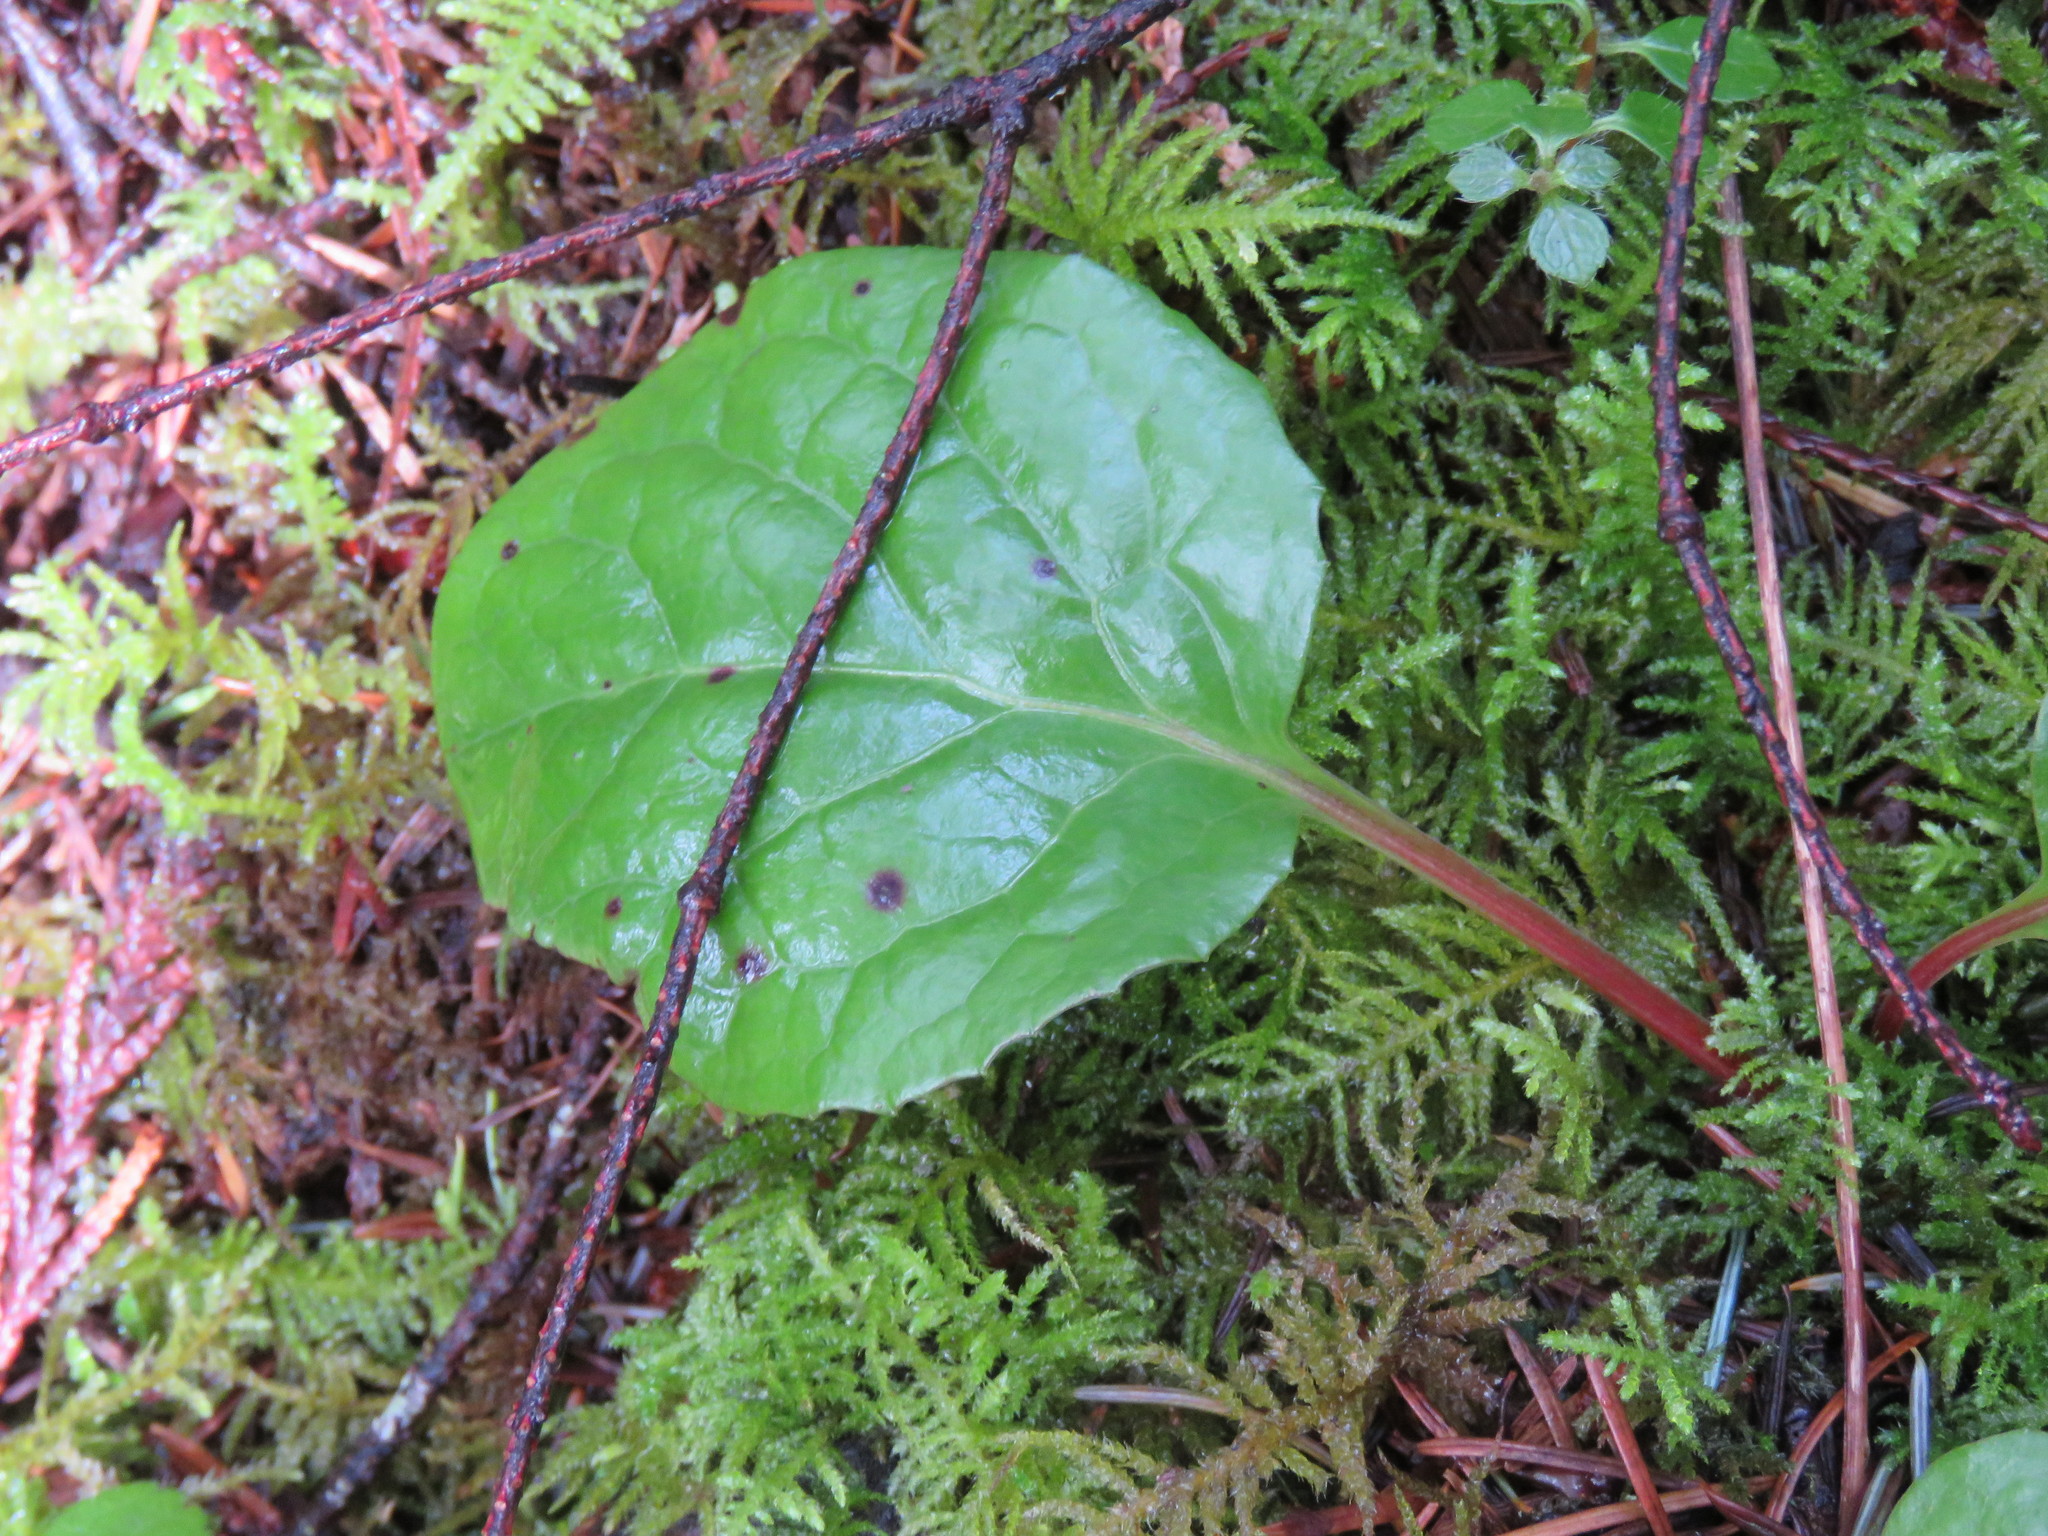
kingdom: Plantae
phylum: Tracheophyta
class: Magnoliopsida
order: Ericales
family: Ericaceae
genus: Pyrola
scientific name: Pyrola asarifolia
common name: Bog wintergreen
